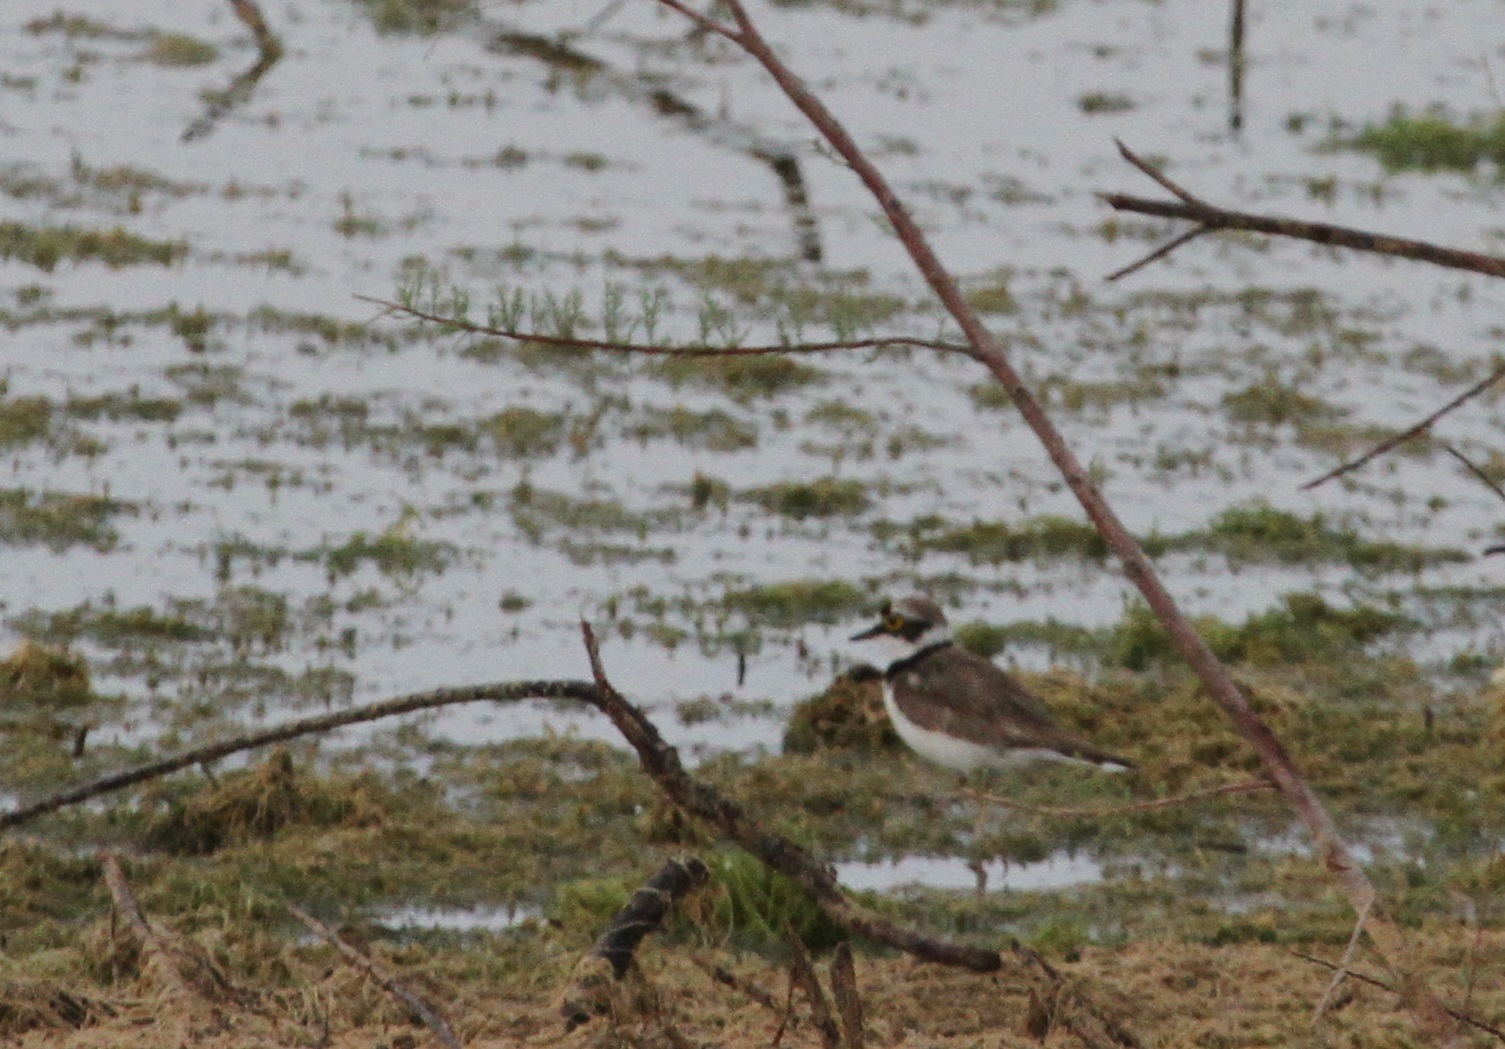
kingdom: Animalia
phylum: Chordata
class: Aves
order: Charadriiformes
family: Charadriidae
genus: Charadrius
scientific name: Charadrius dubius
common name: Little ringed plover
